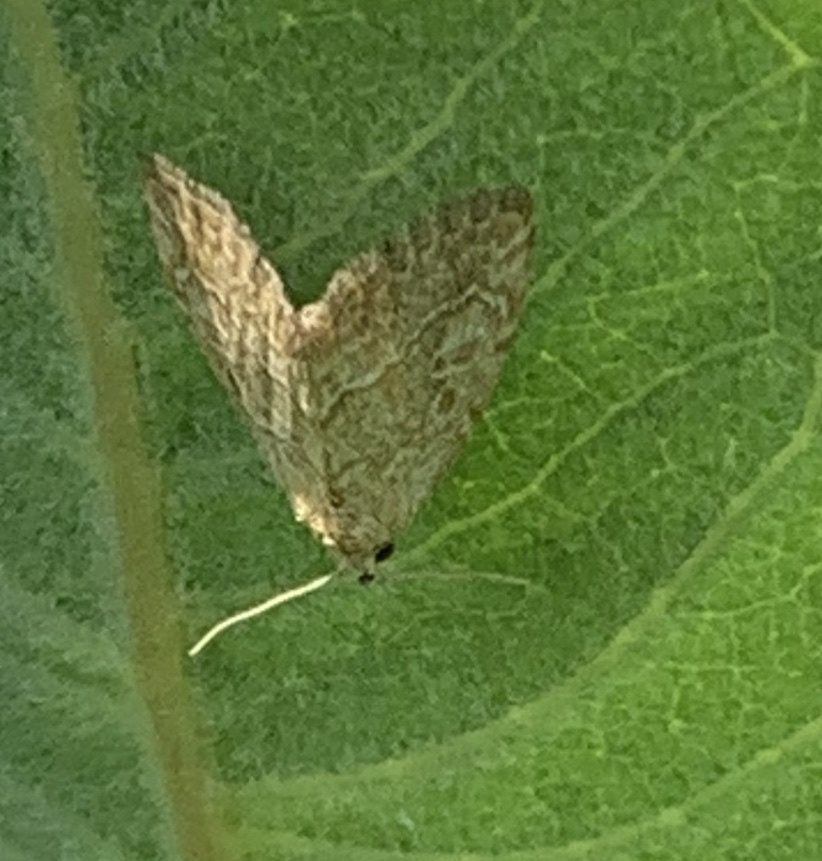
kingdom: Animalia
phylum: Arthropoda
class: Insecta
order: Lepidoptera
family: Noctuidae
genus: Protodeltote
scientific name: Protodeltote albidula
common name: Pale glyph
